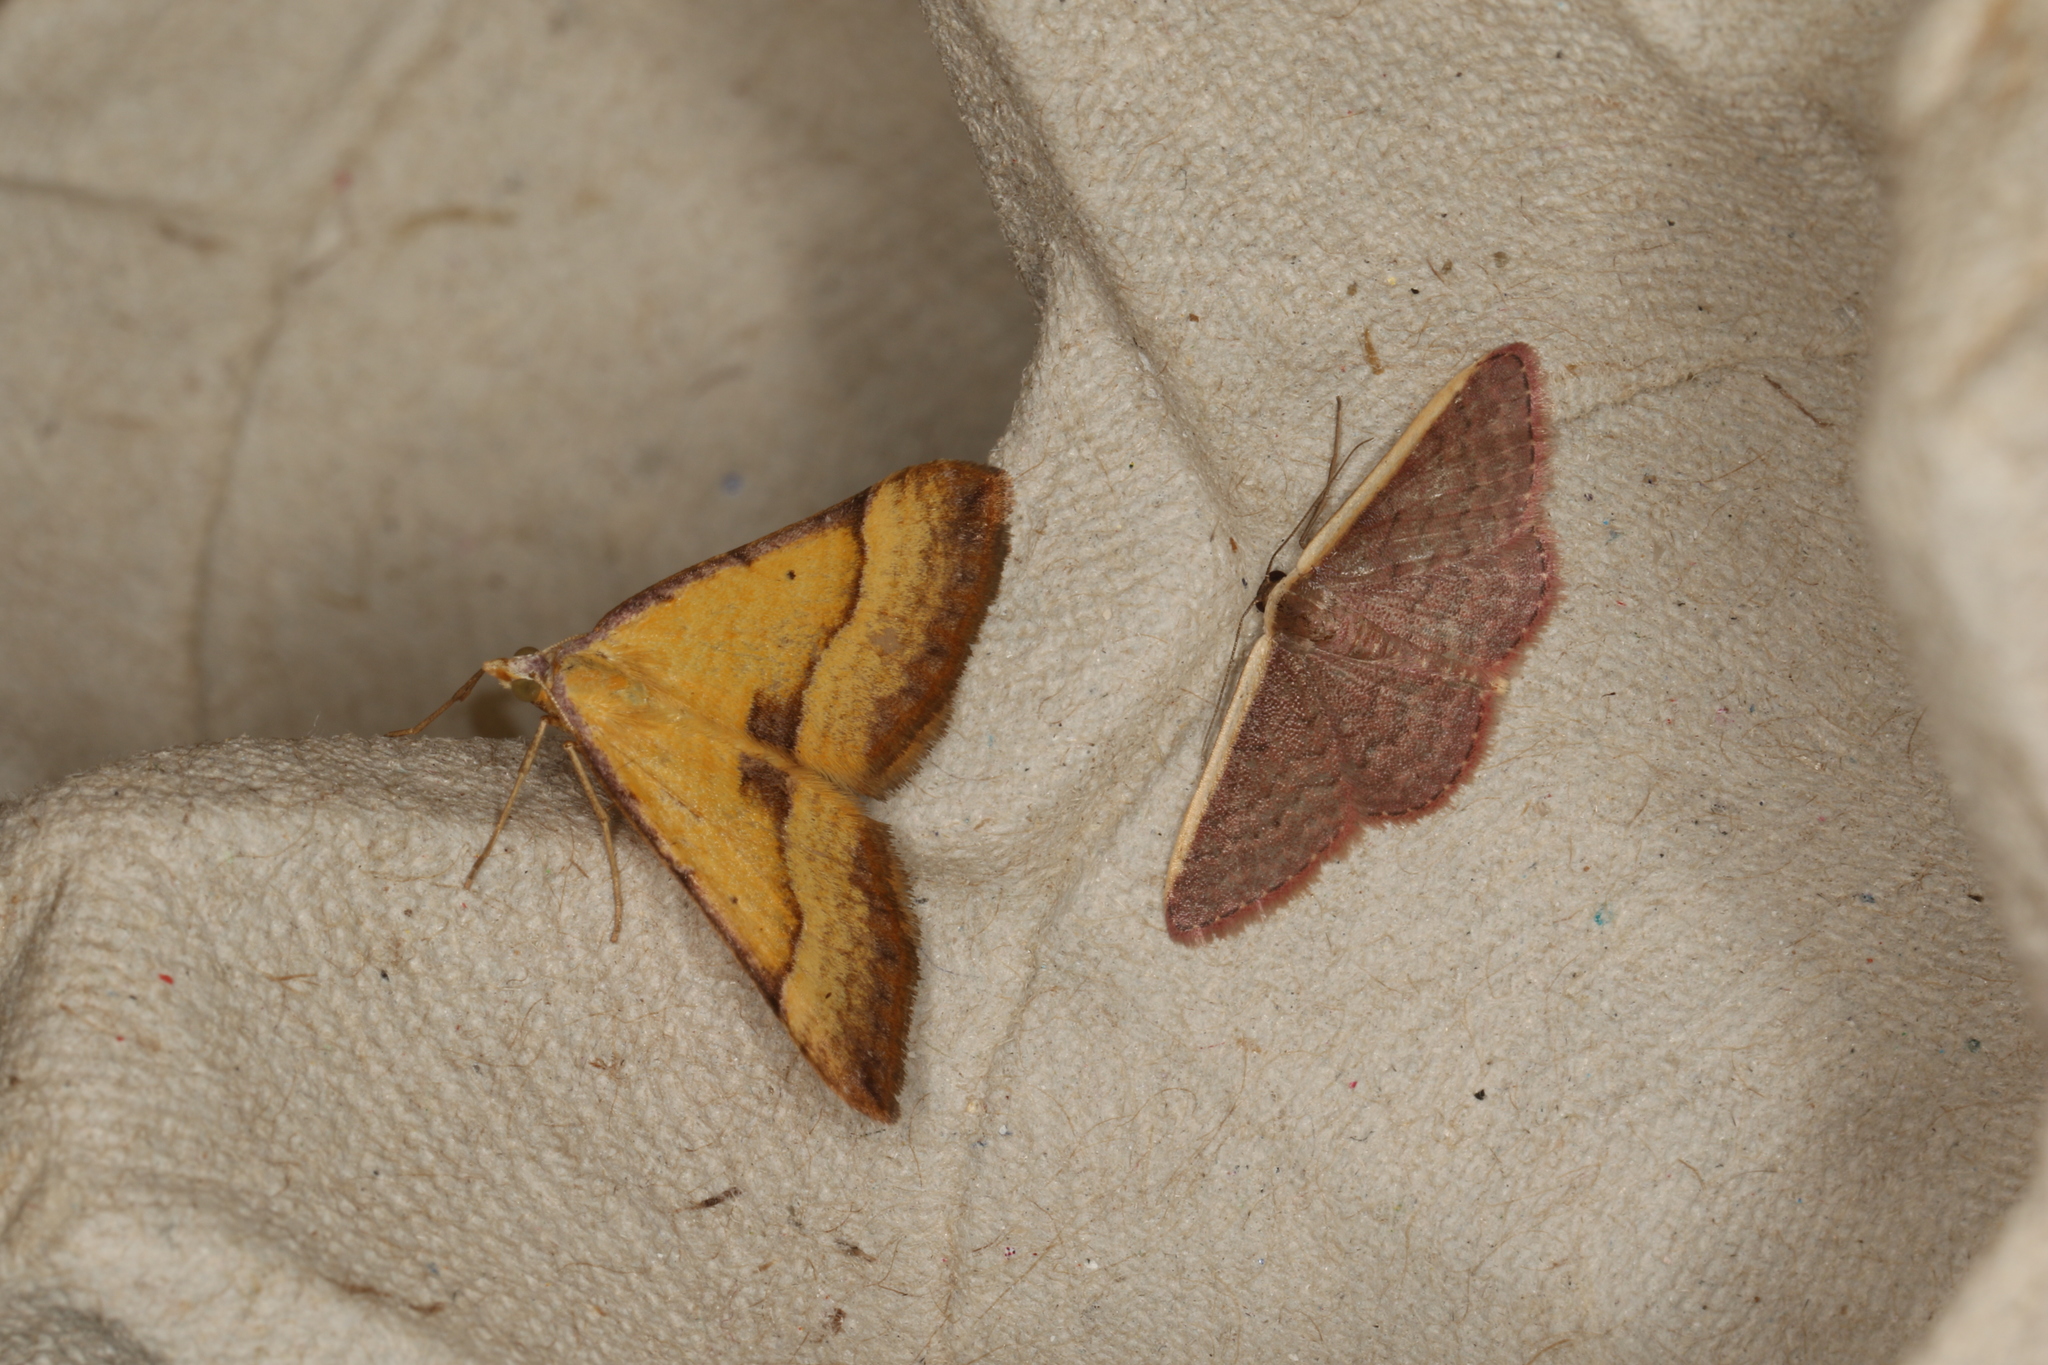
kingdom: Animalia
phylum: Arthropoda
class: Insecta
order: Lepidoptera
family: Geometridae
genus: Idaea
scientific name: Idaea inversata
